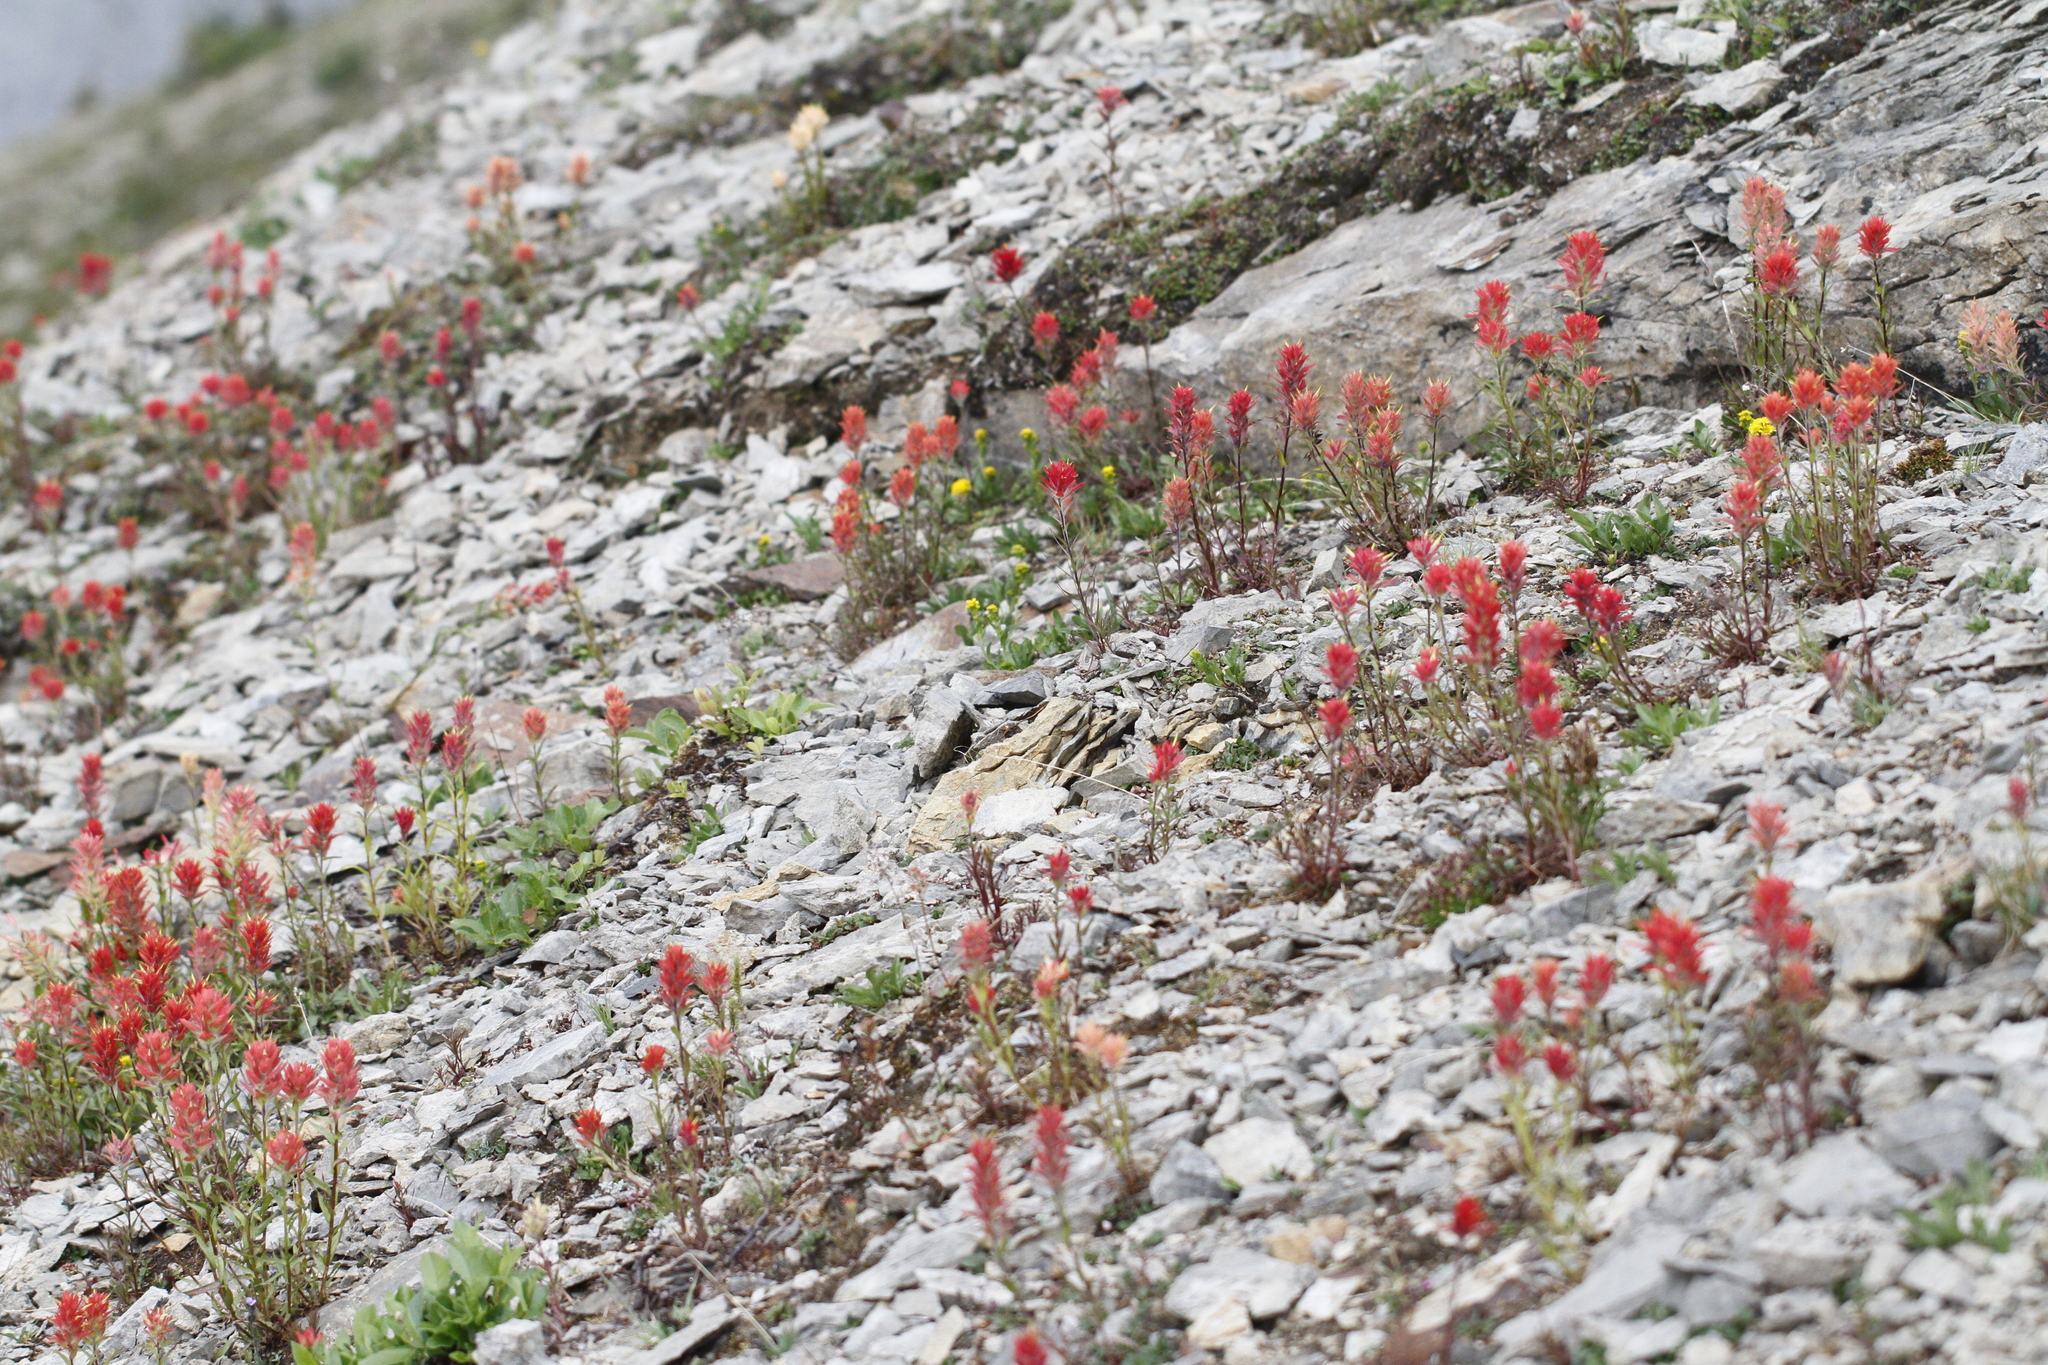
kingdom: Plantae
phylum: Tracheophyta
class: Magnoliopsida
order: Lamiales
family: Orobanchaceae
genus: Castilleja
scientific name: Castilleja miniata
